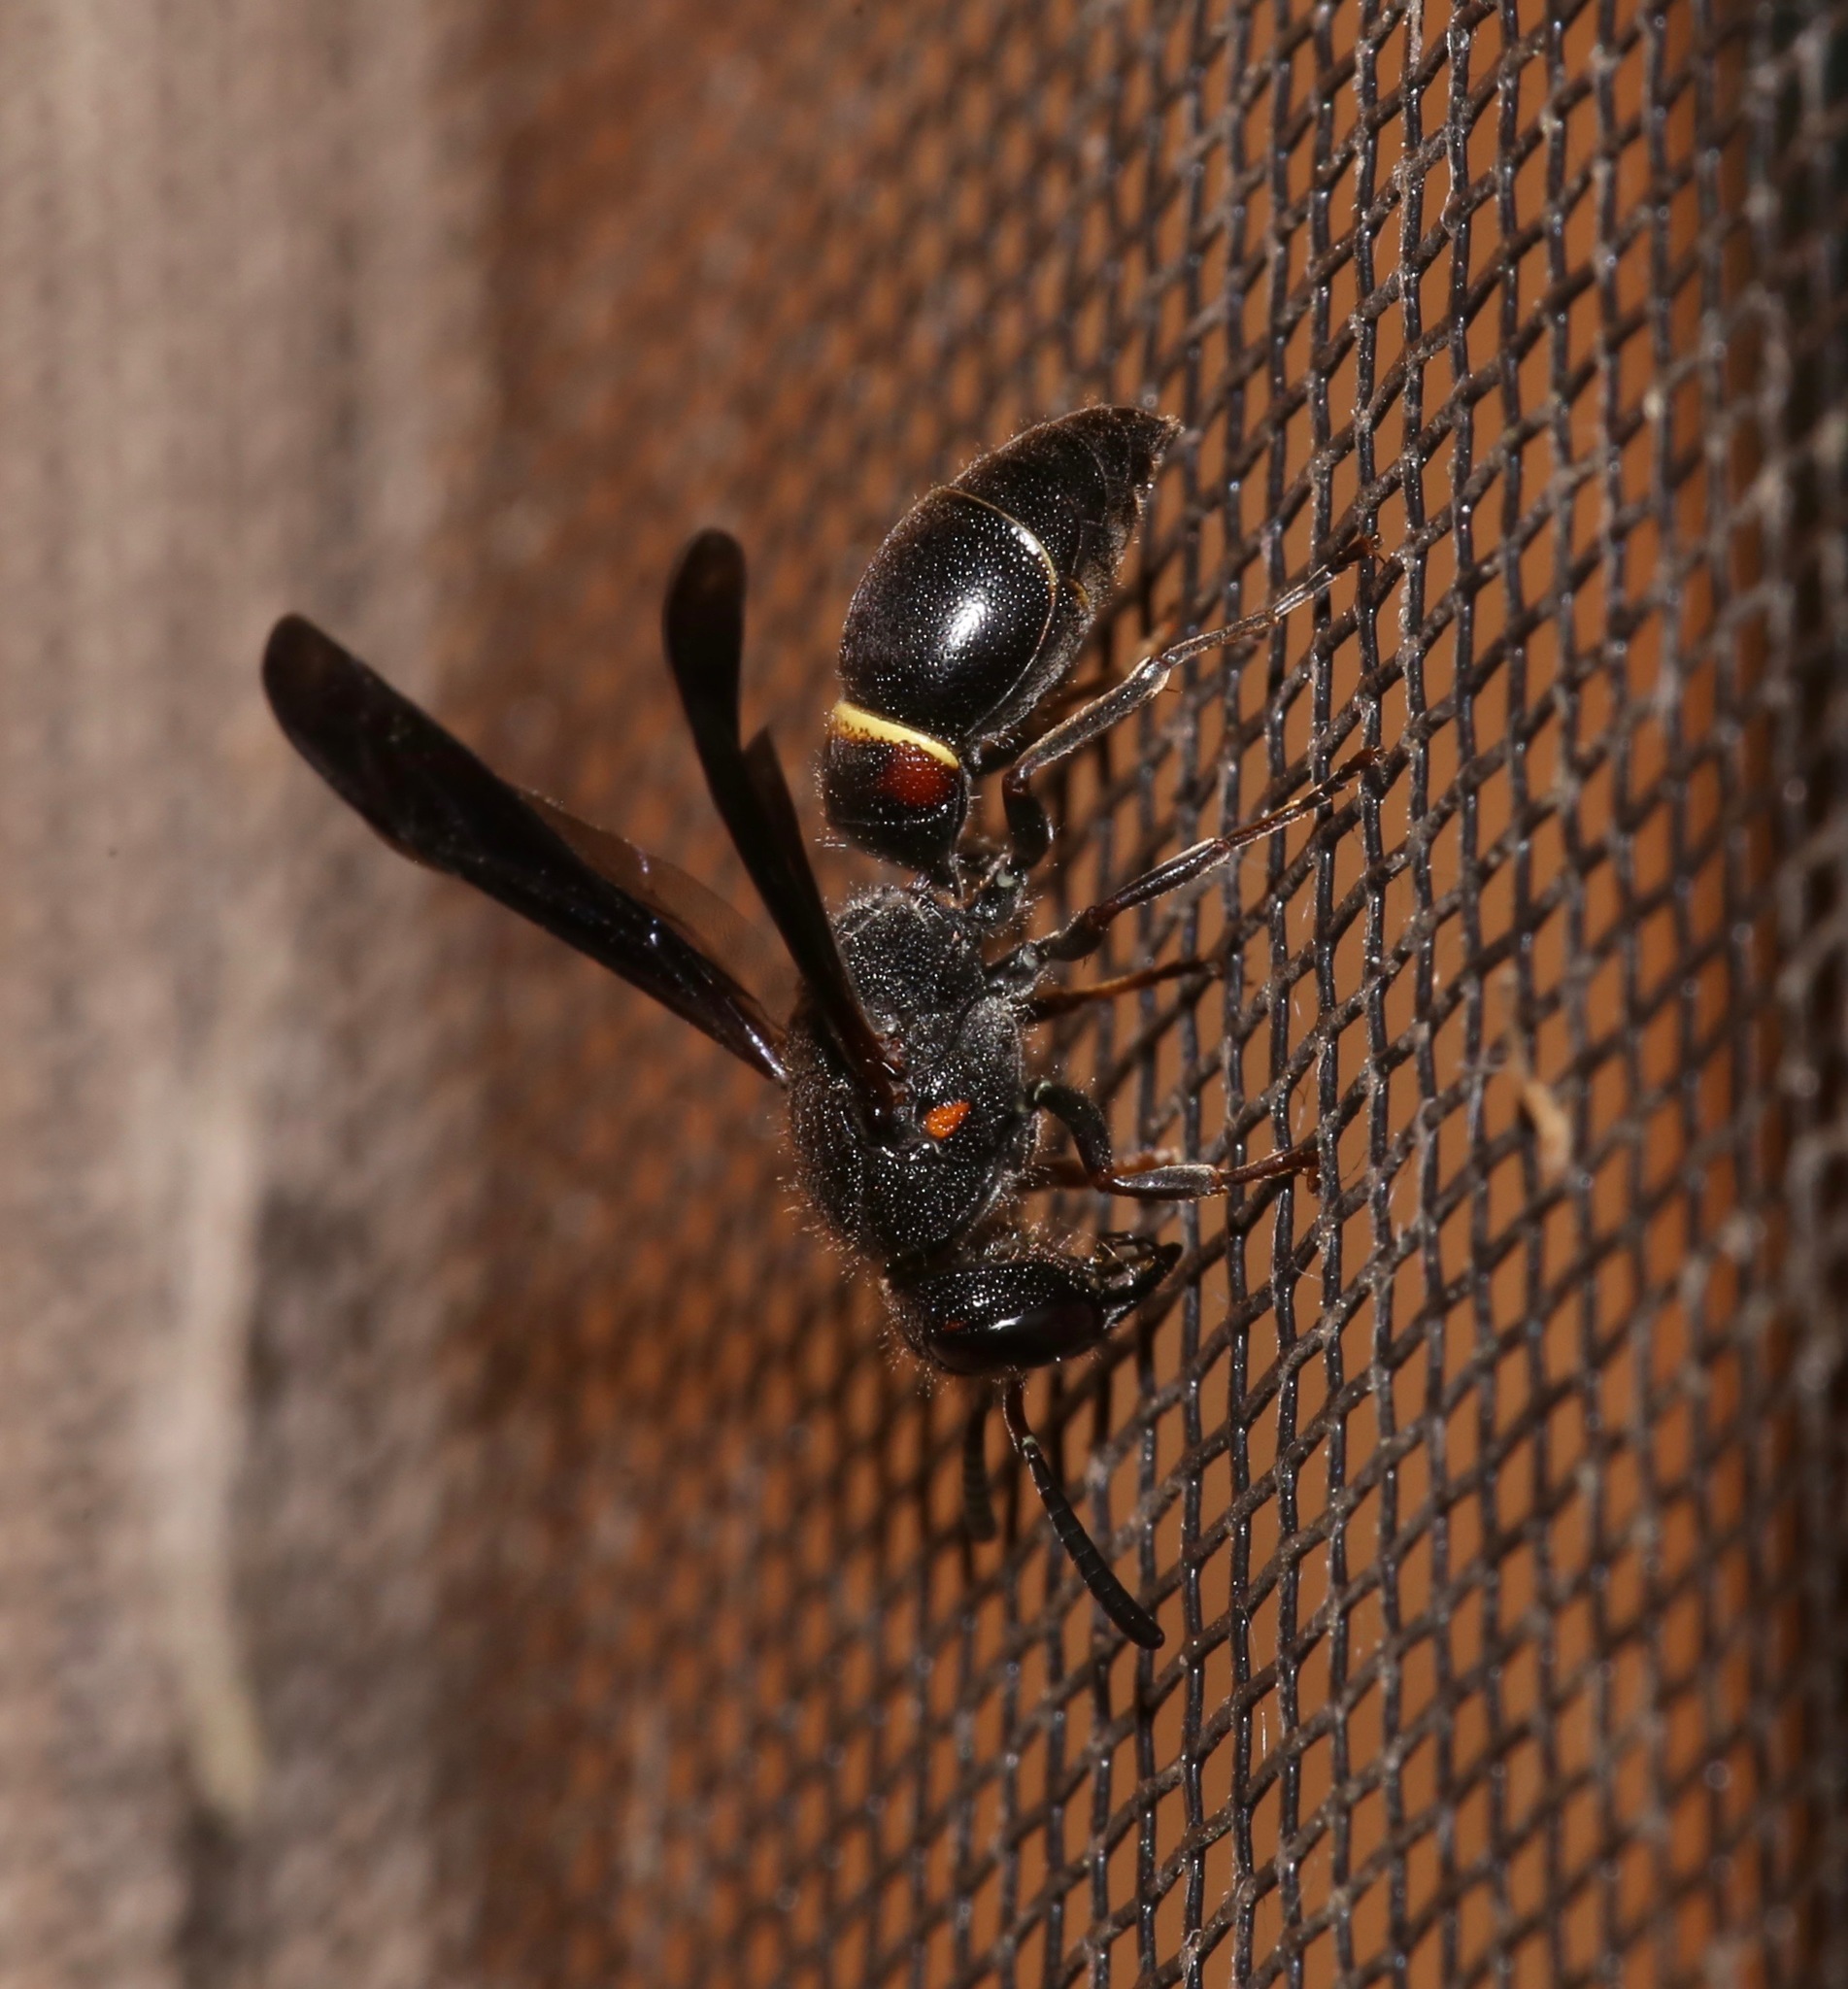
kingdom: Animalia
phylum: Arthropoda
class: Insecta
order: Hymenoptera
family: Vespidae
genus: Ancistrocerus
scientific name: Ancistrocerus unifasciatus
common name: One-banded mason wasp
